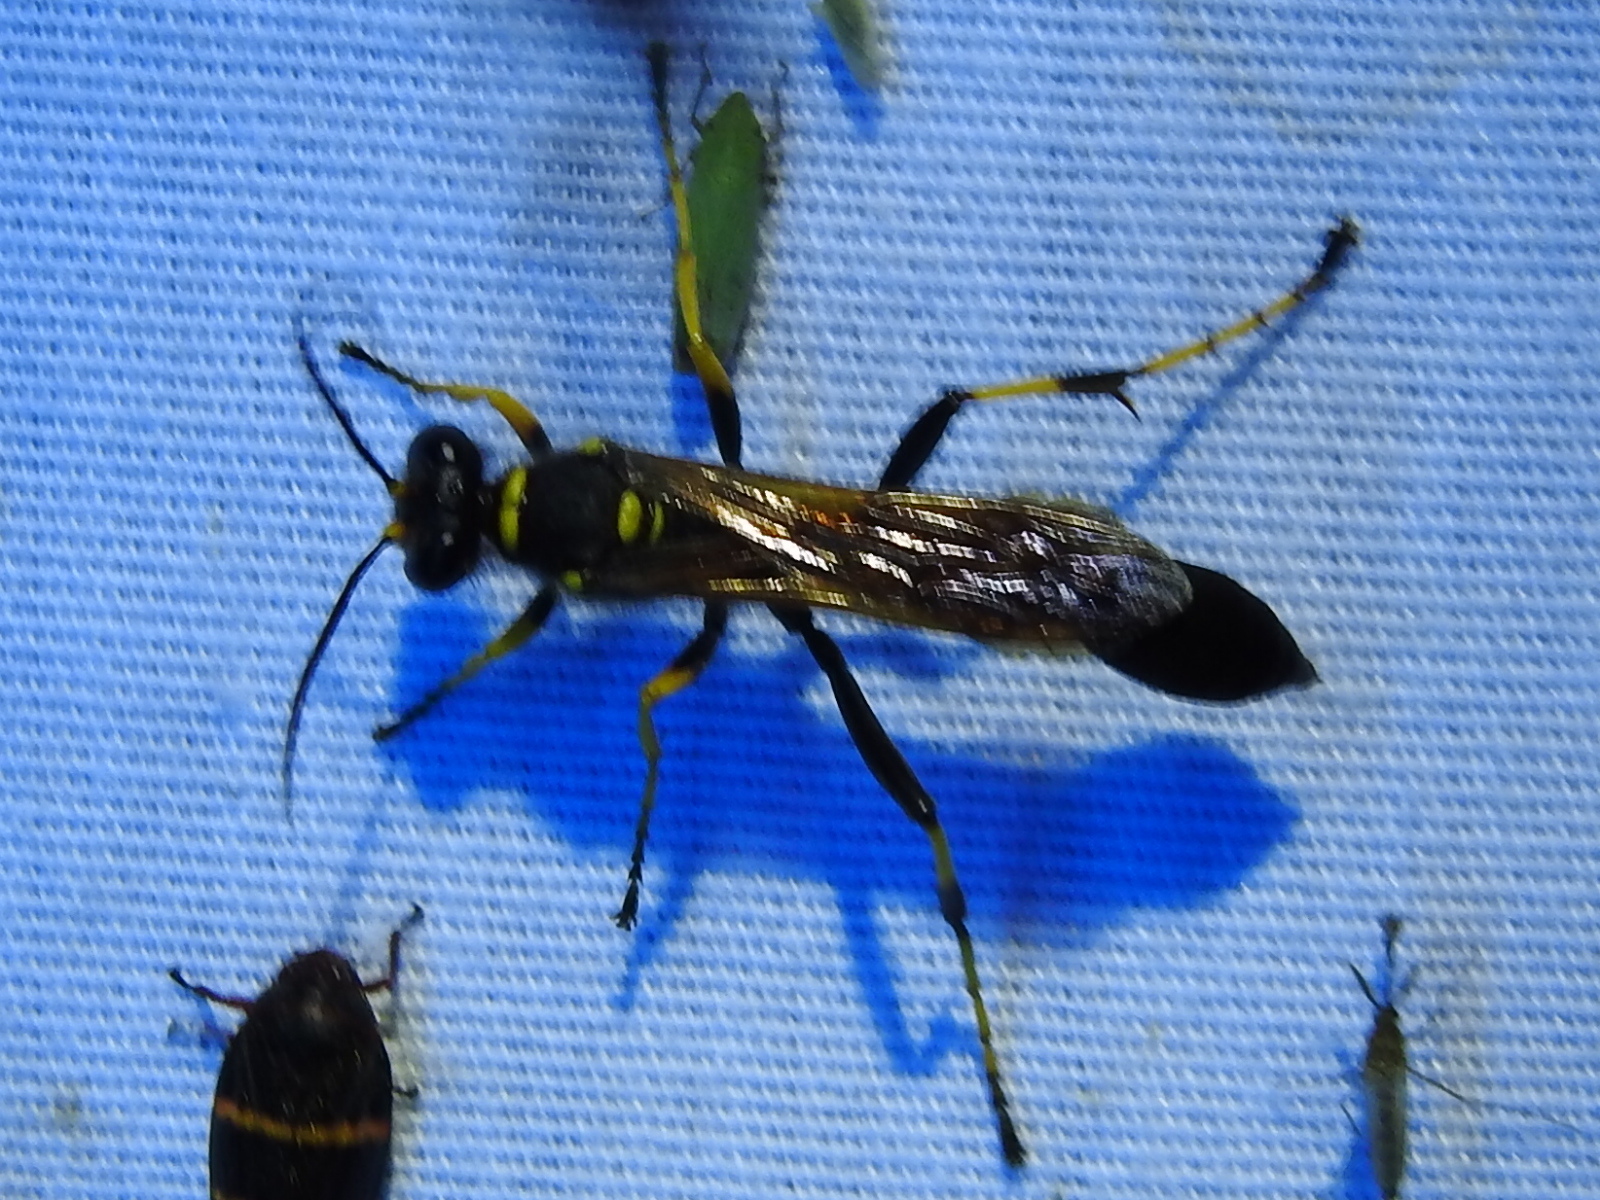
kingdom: Animalia
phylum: Arthropoda
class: Insecta
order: Hymenoptera
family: Sphecidae
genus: Sceliphron
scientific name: Sceliphron caementarium
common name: Mud dauber
